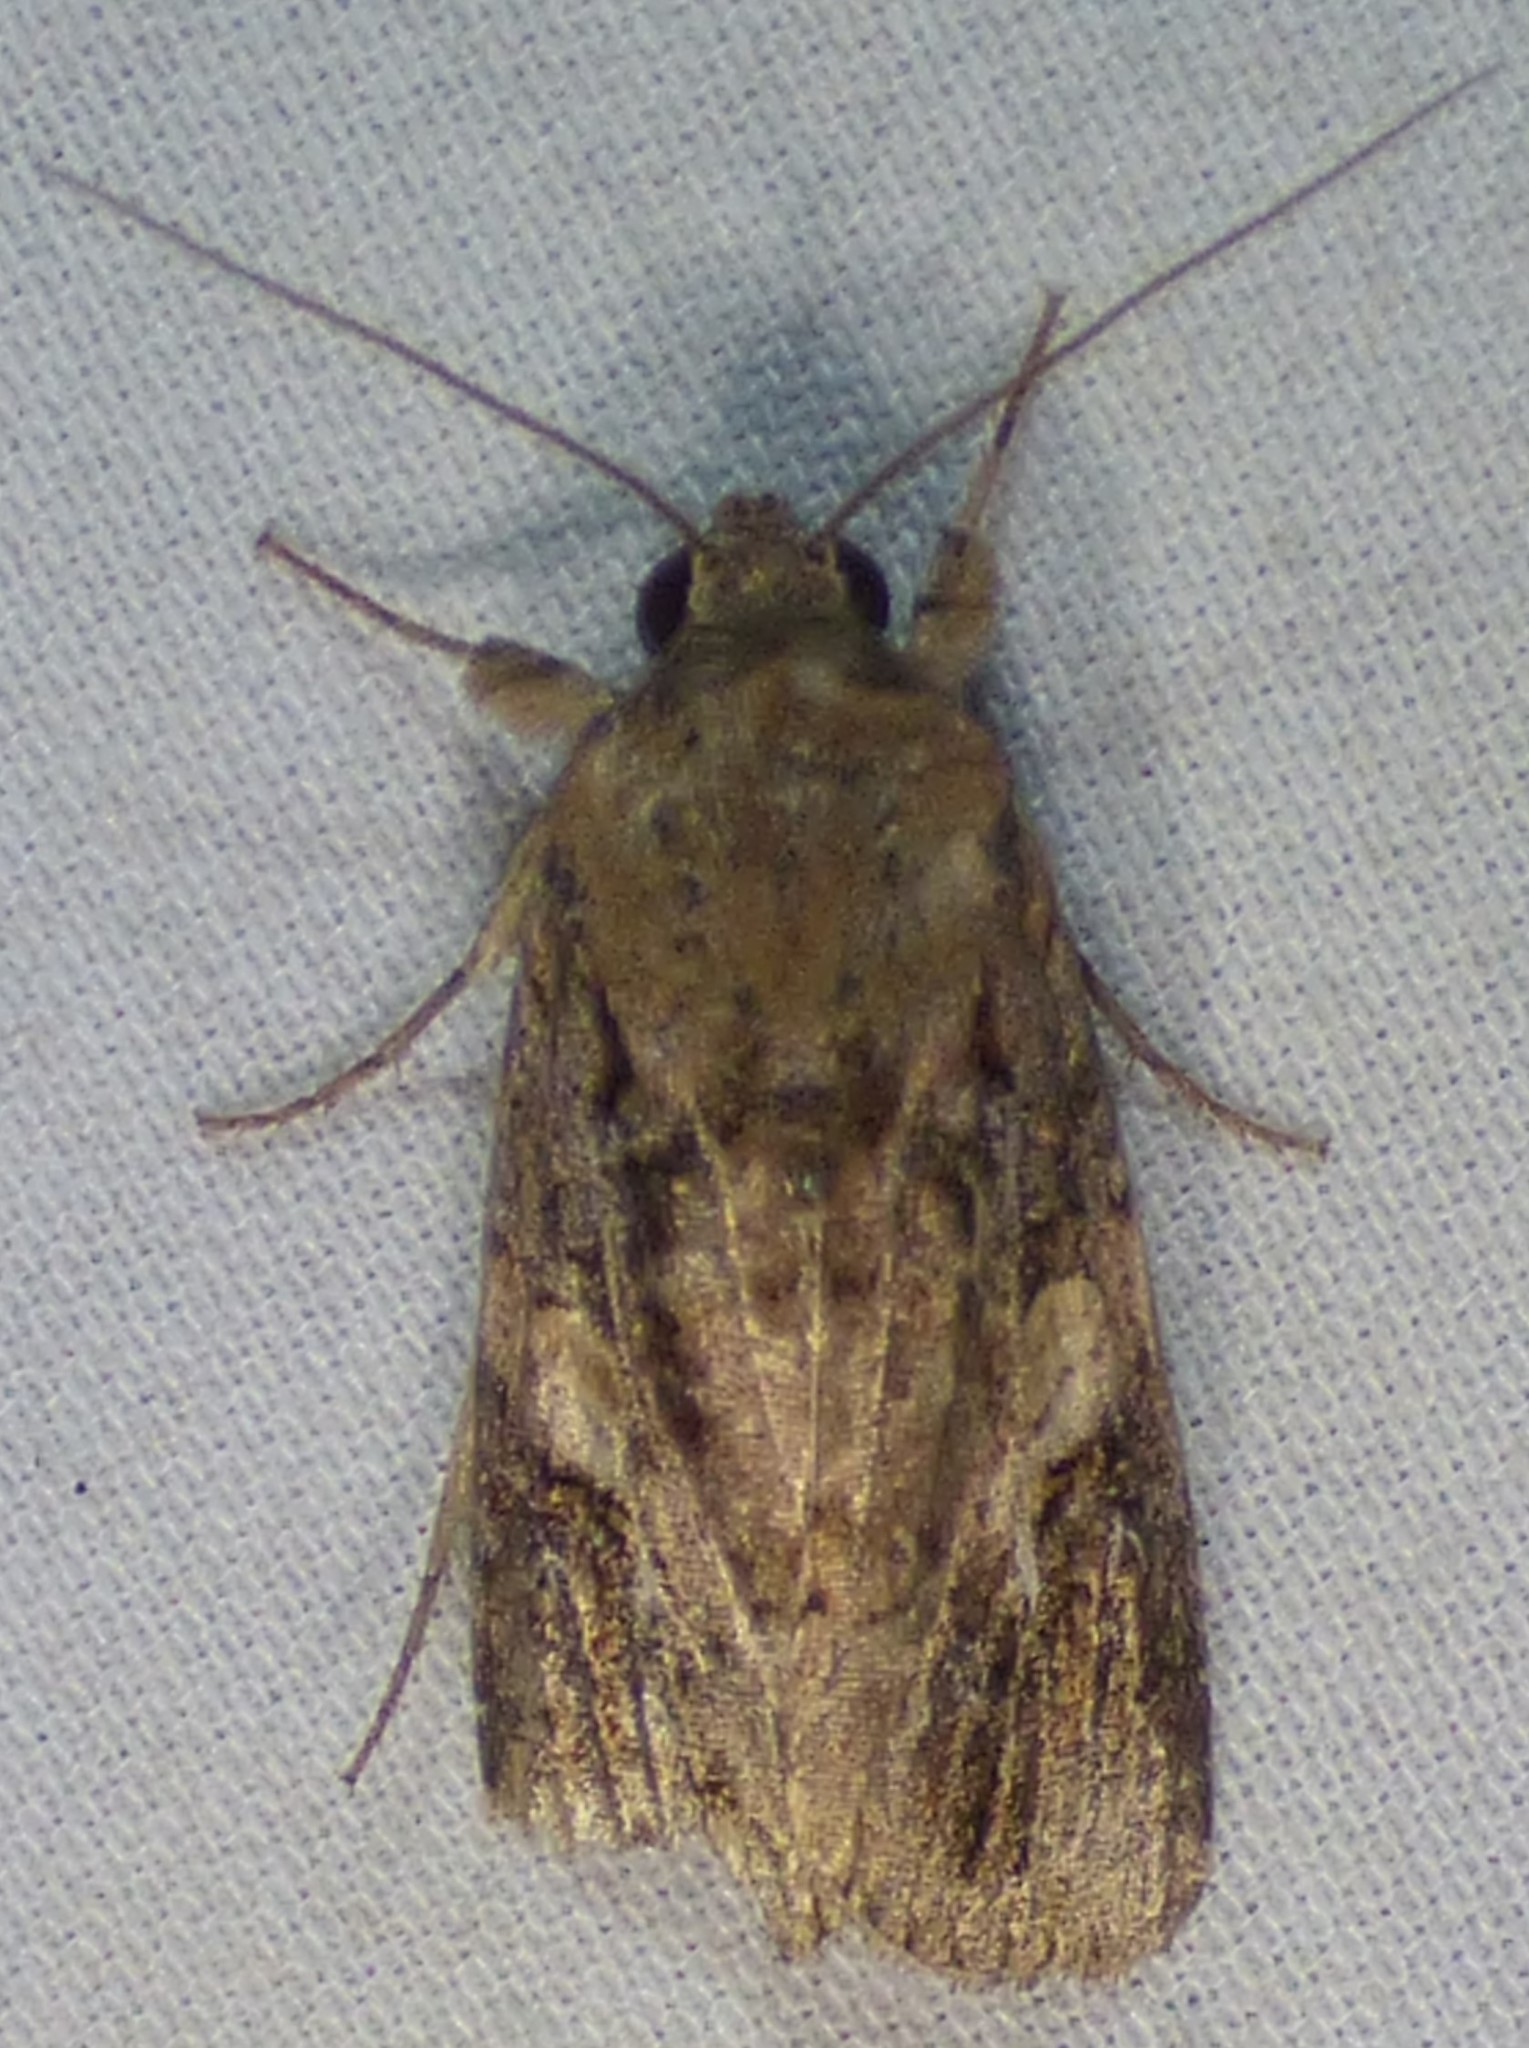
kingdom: Animalia
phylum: Arthropoda
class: Insecta
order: Lepidoptera
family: Noctuidae
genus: Spodoptera
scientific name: Spodoptera frugiperda
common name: Fall armyworm
